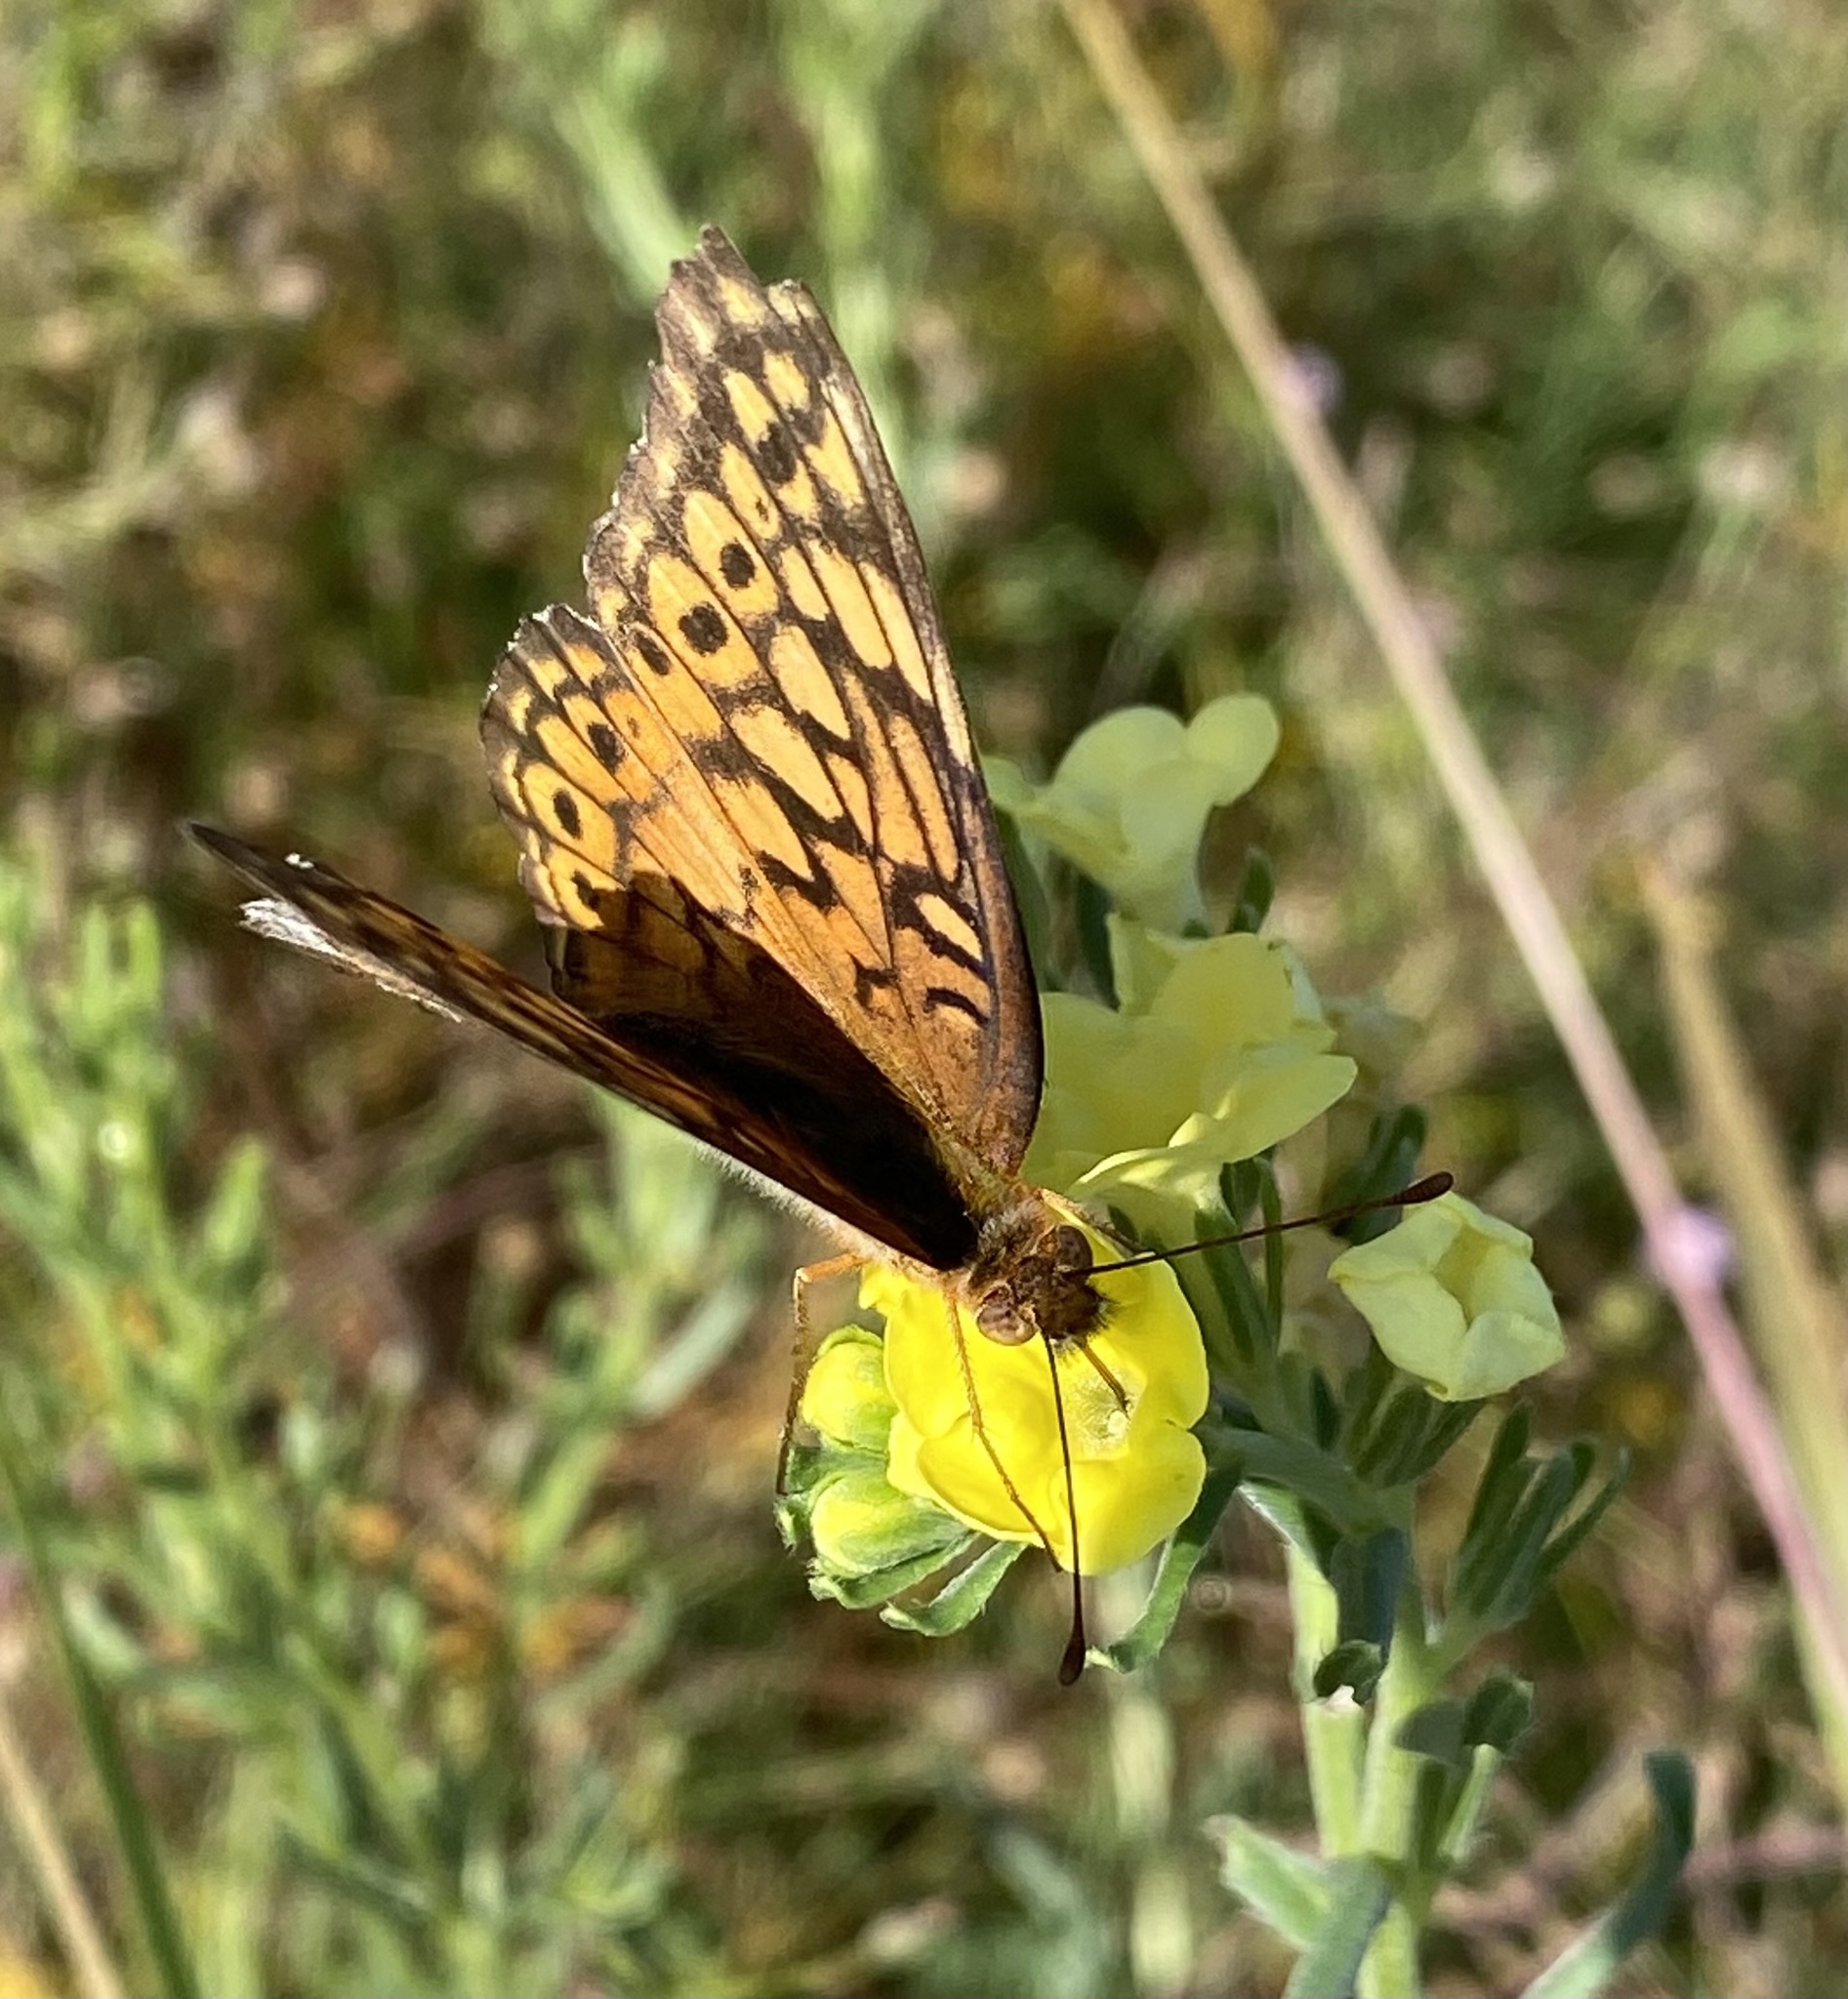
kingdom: Animalia
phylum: Arthropoda
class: Insecta
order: Lepidoptera
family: Nymphalidae
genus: Euptoieta
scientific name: Euptoieta claudia
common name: Variegated fritillary
